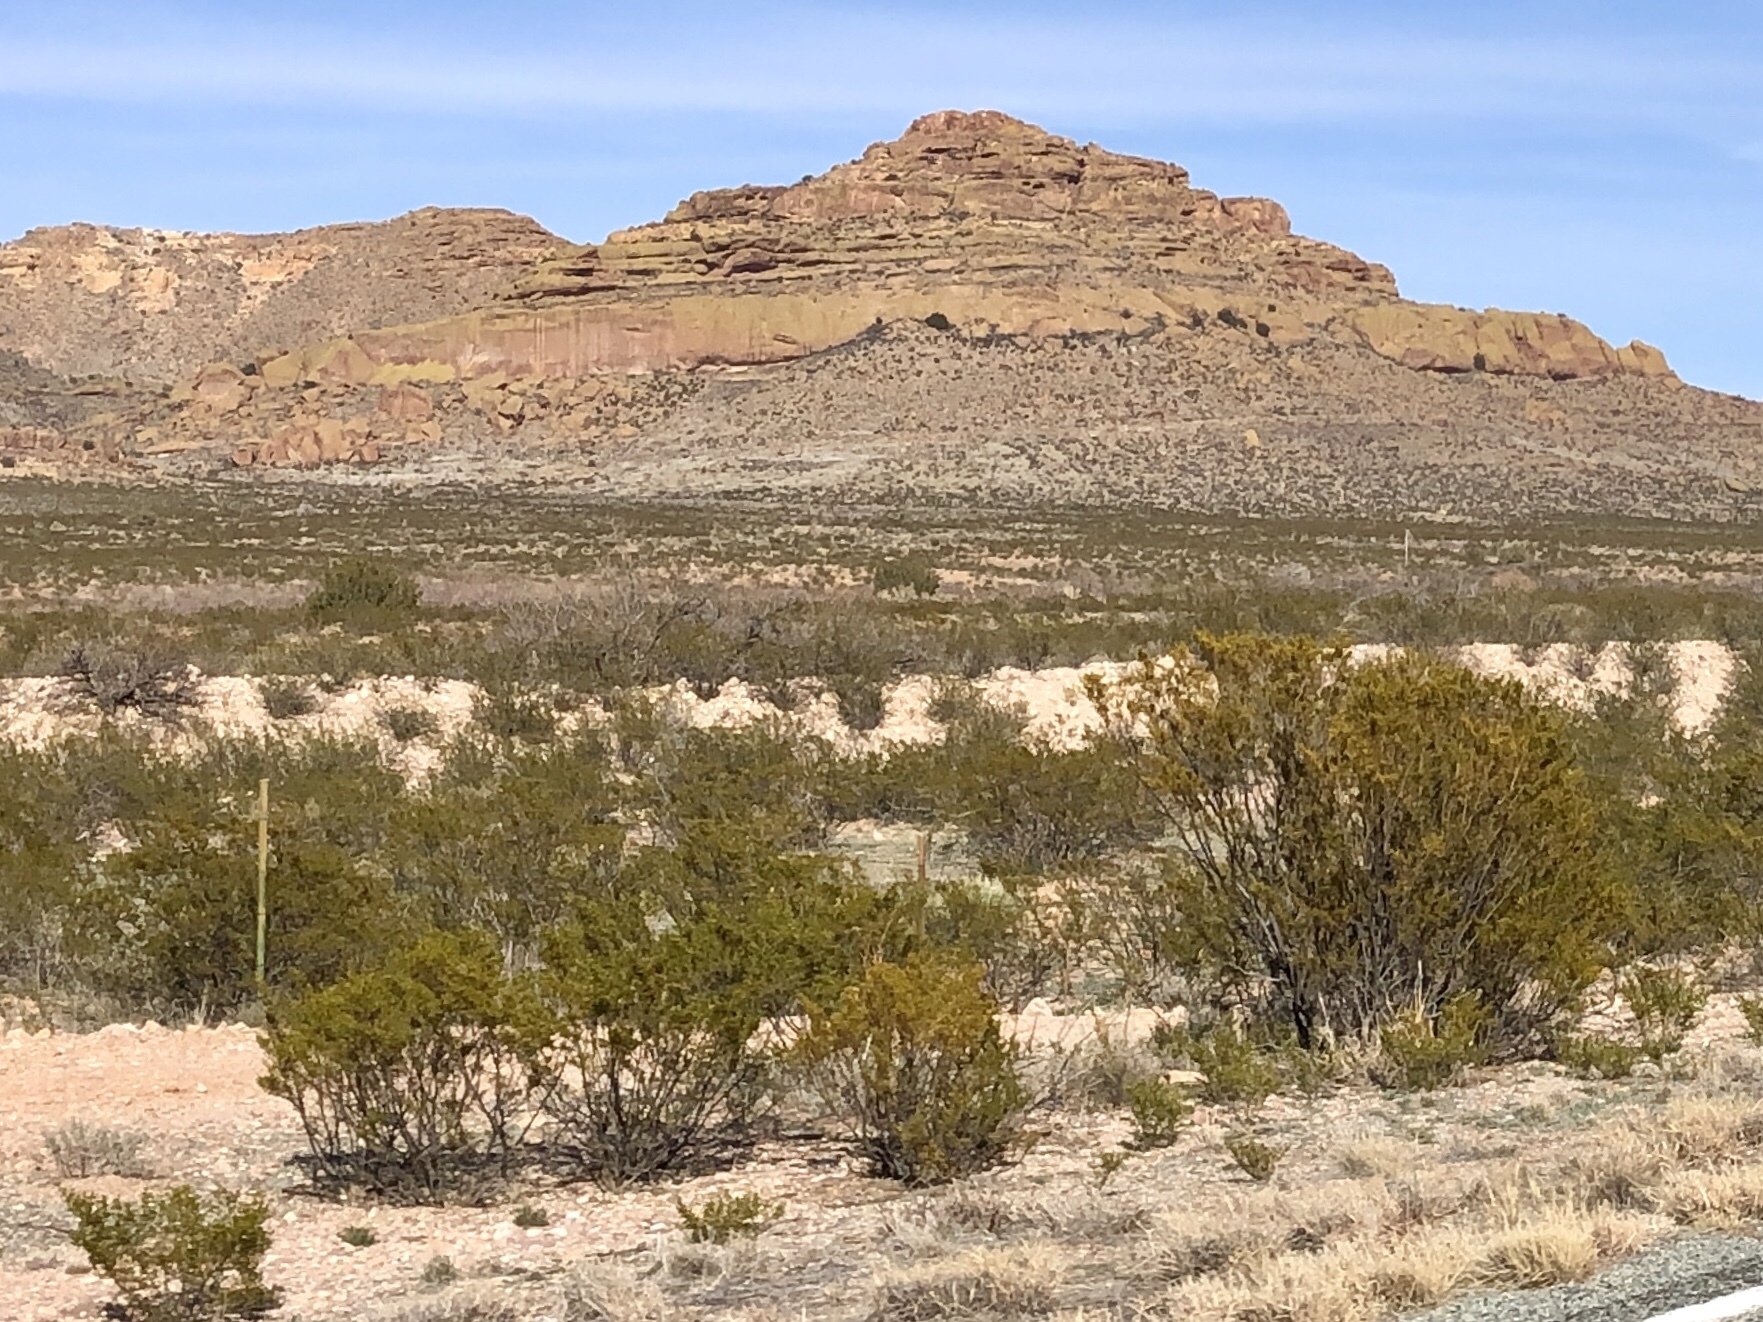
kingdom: Plantae
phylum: Tracheophyta
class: Magnoliopsida
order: Zygophyllales
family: Zygophyllaceae
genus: Larrea
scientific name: Larrea tridentata
